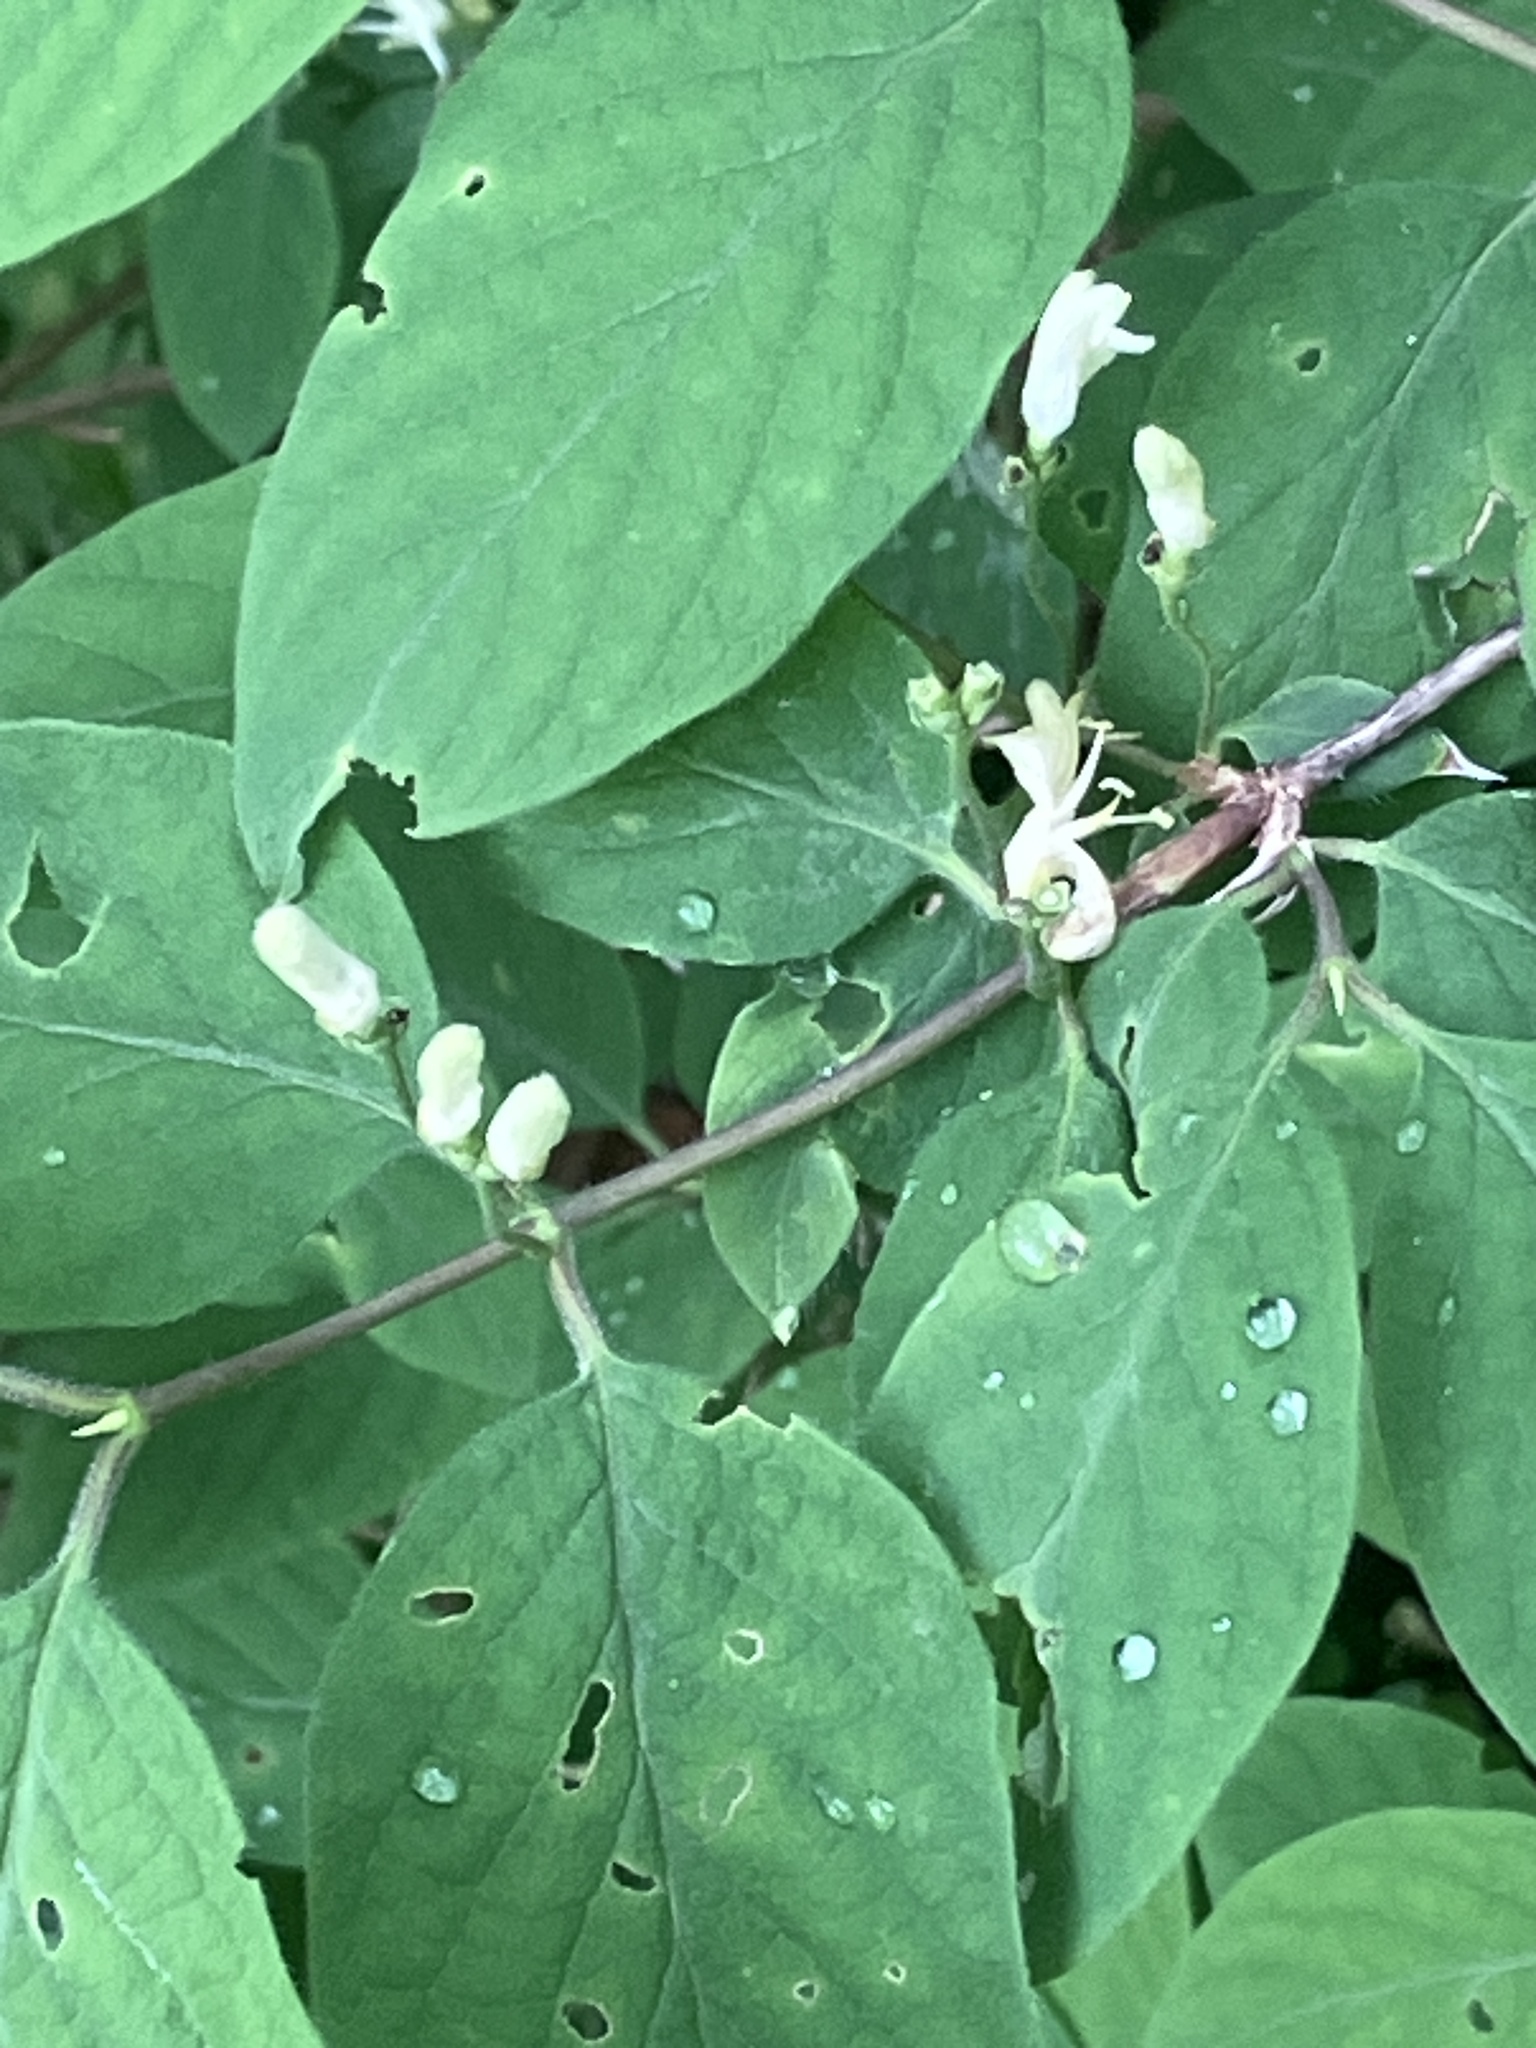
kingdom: Plantae
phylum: Tracheophyta
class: Magnoliopsida
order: Dipsacales
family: Caprifoliaceae
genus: Lonicera
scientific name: Lonicera xylosteum
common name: Fly honeysuckle
